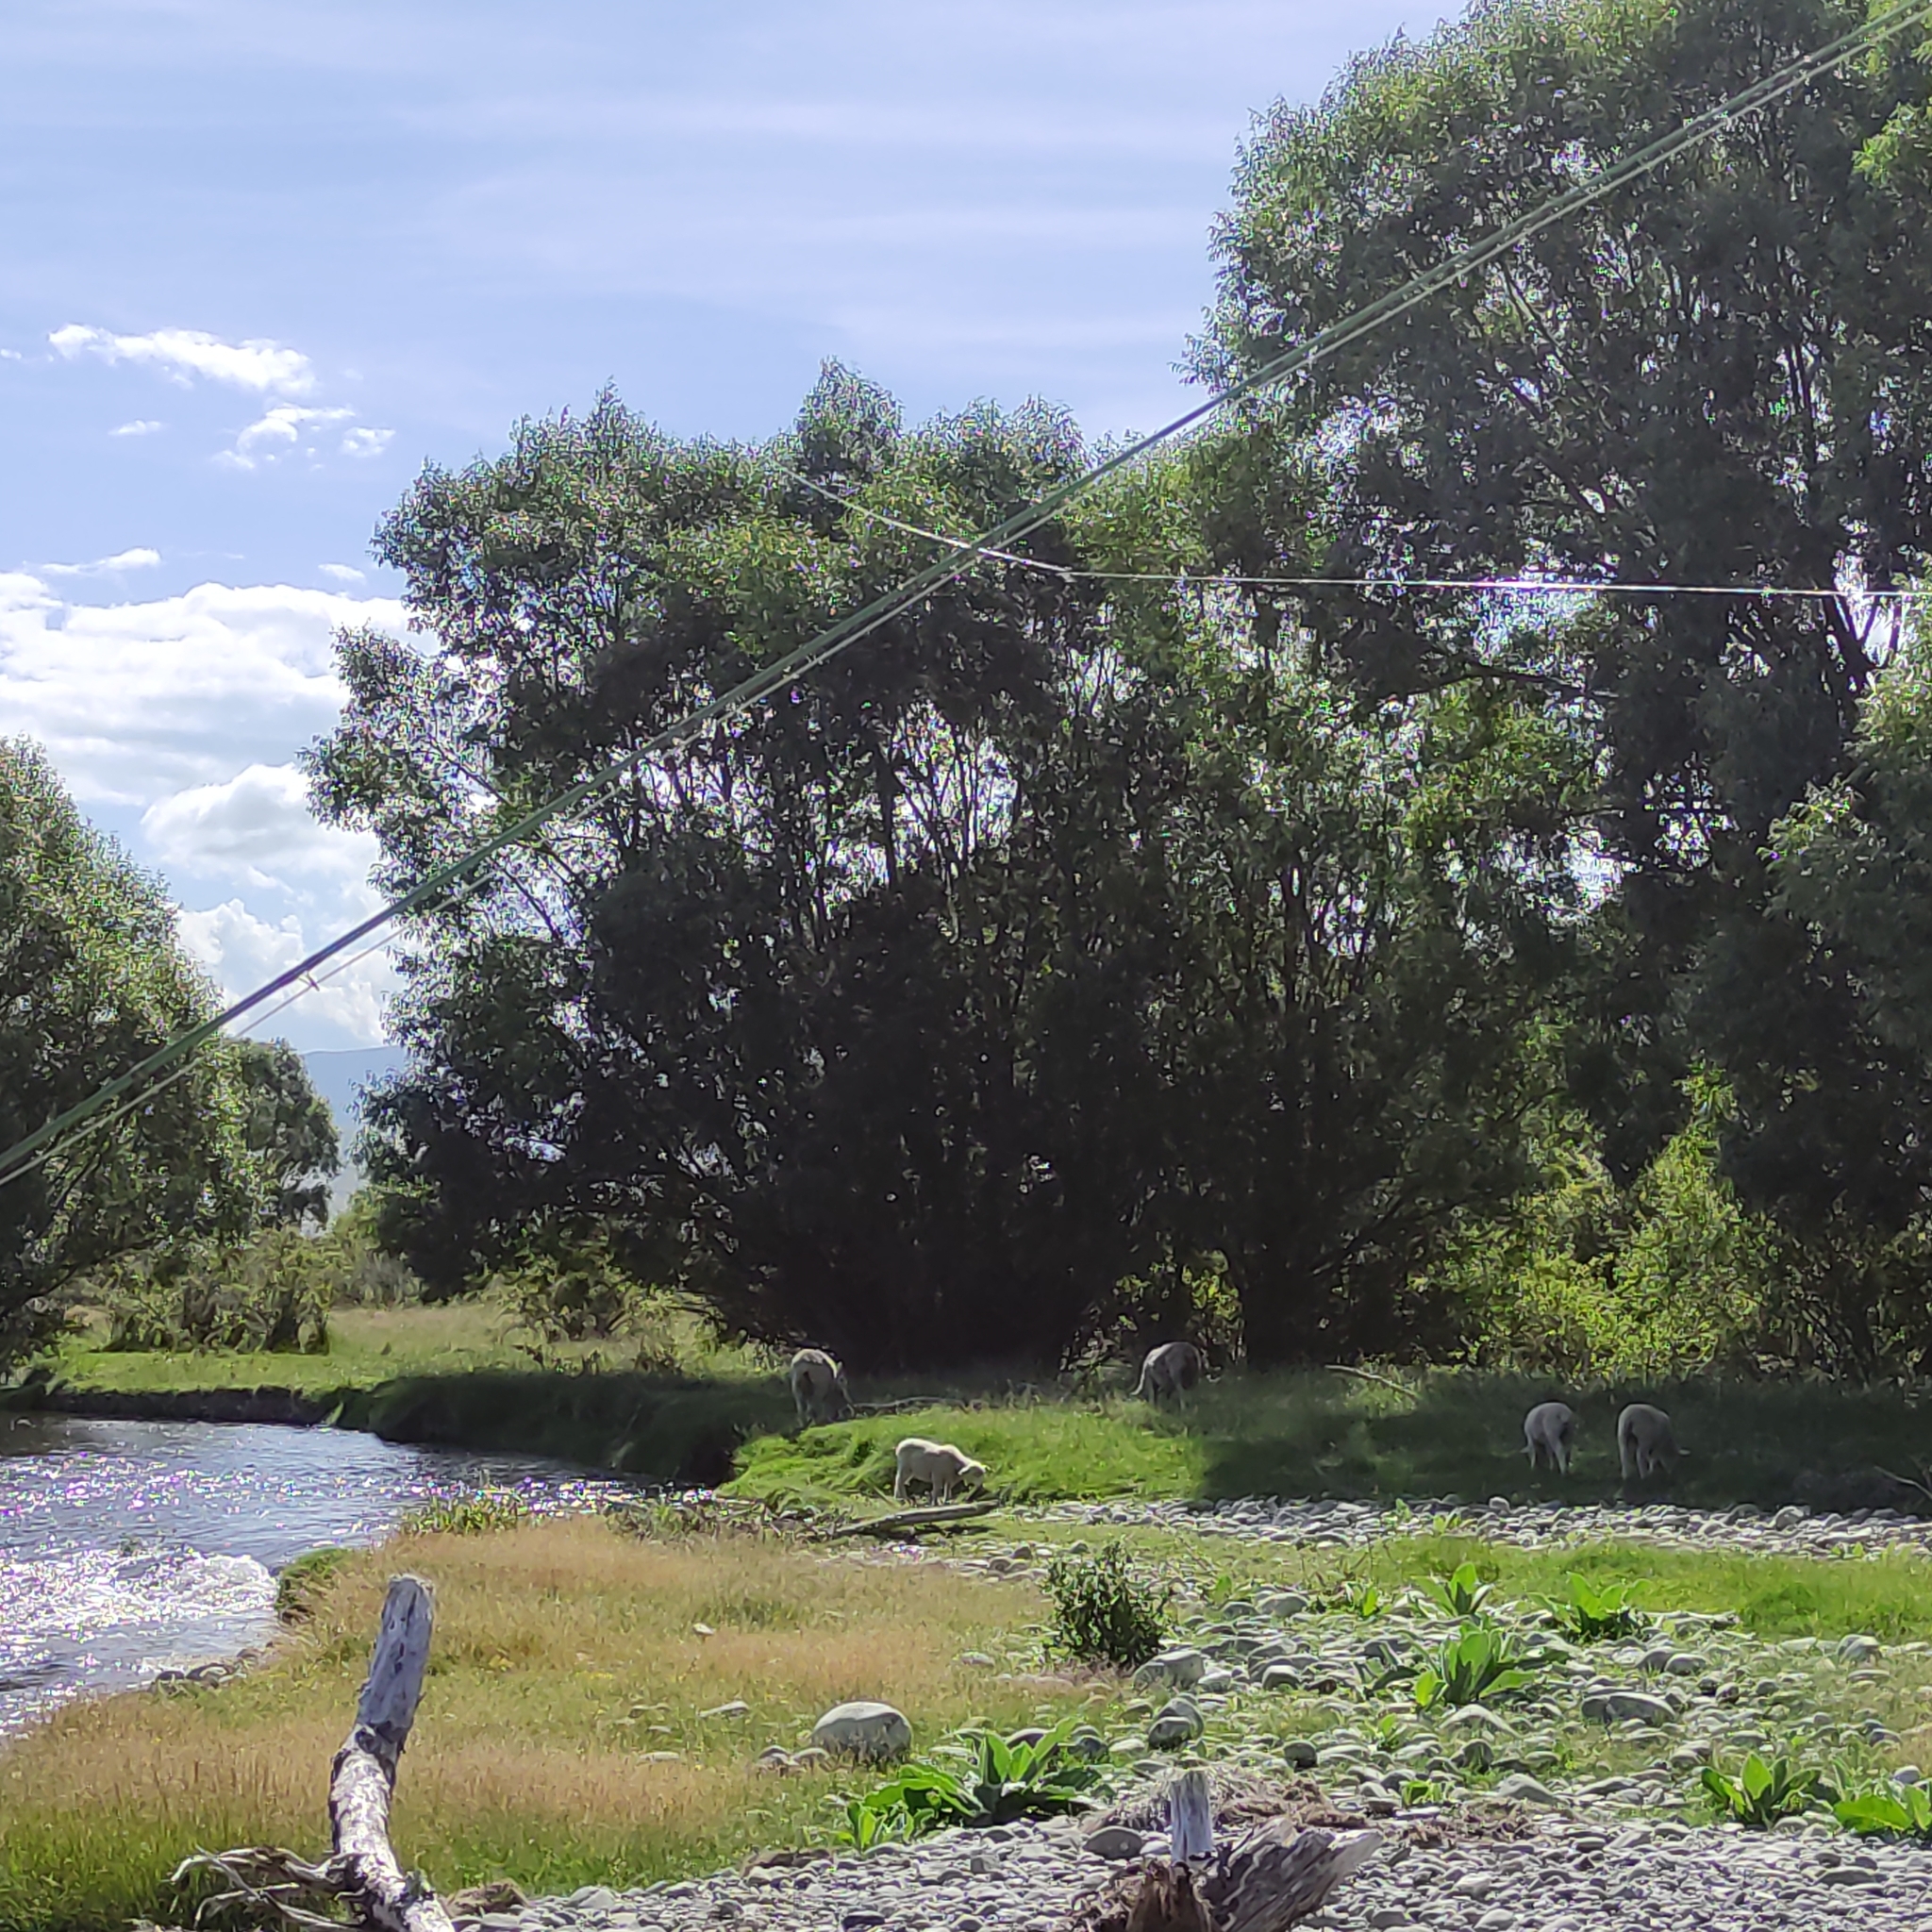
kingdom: Animalia
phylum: Chordata
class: Mammalia
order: Artiodactyla
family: Bovidae
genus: Ovis
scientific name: Ovis aries
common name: Domestic sheep
